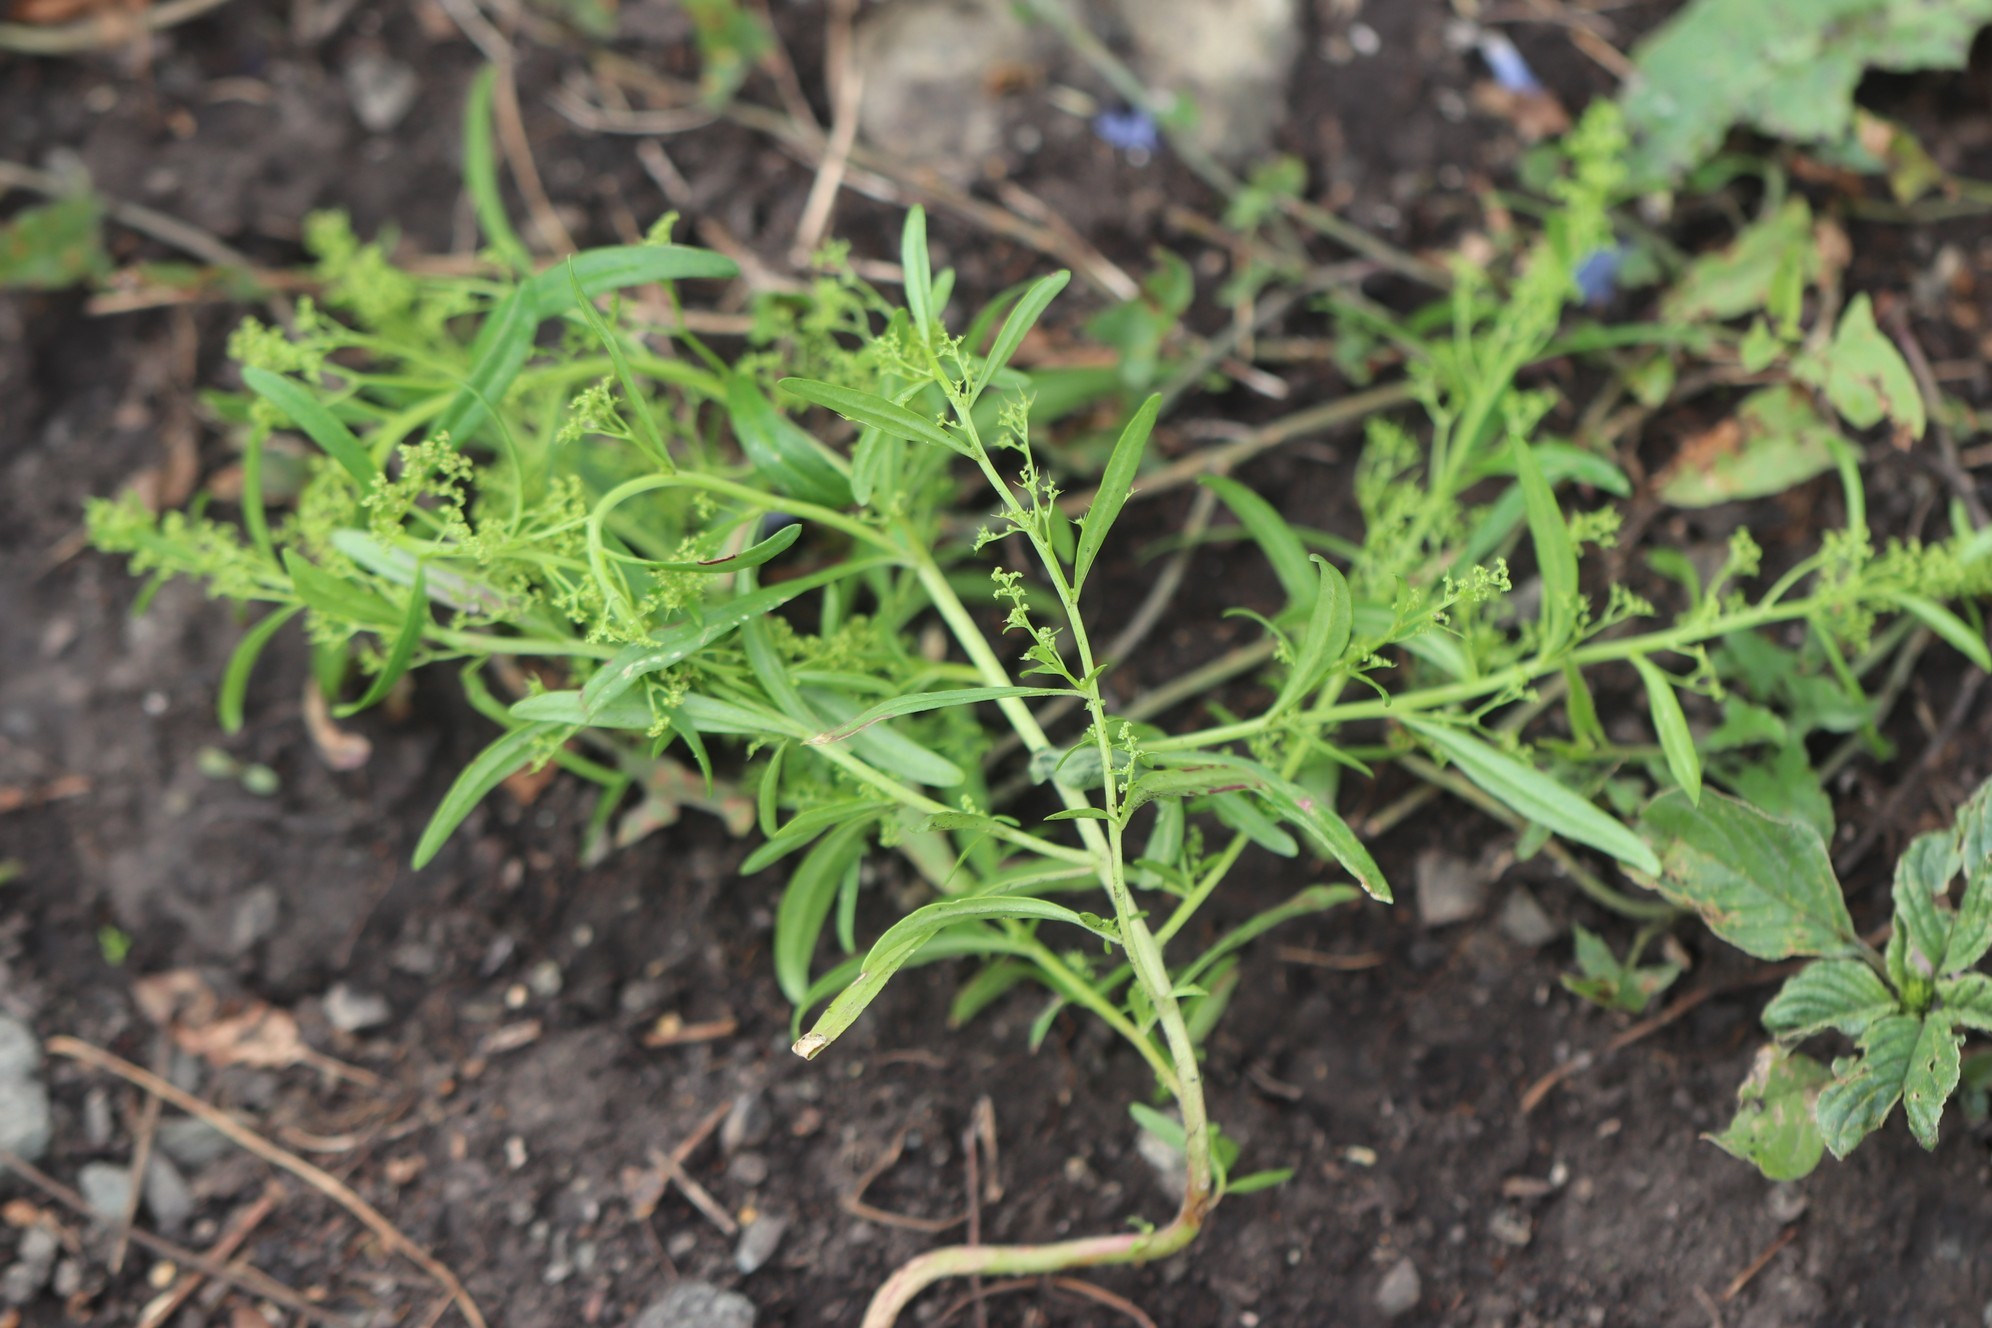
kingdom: Plantae
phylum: Tracheophyta
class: Magnoliopsida
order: Caryophyllales
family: Amaranthaceae
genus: Teloxys
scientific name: Teloxys aristata
